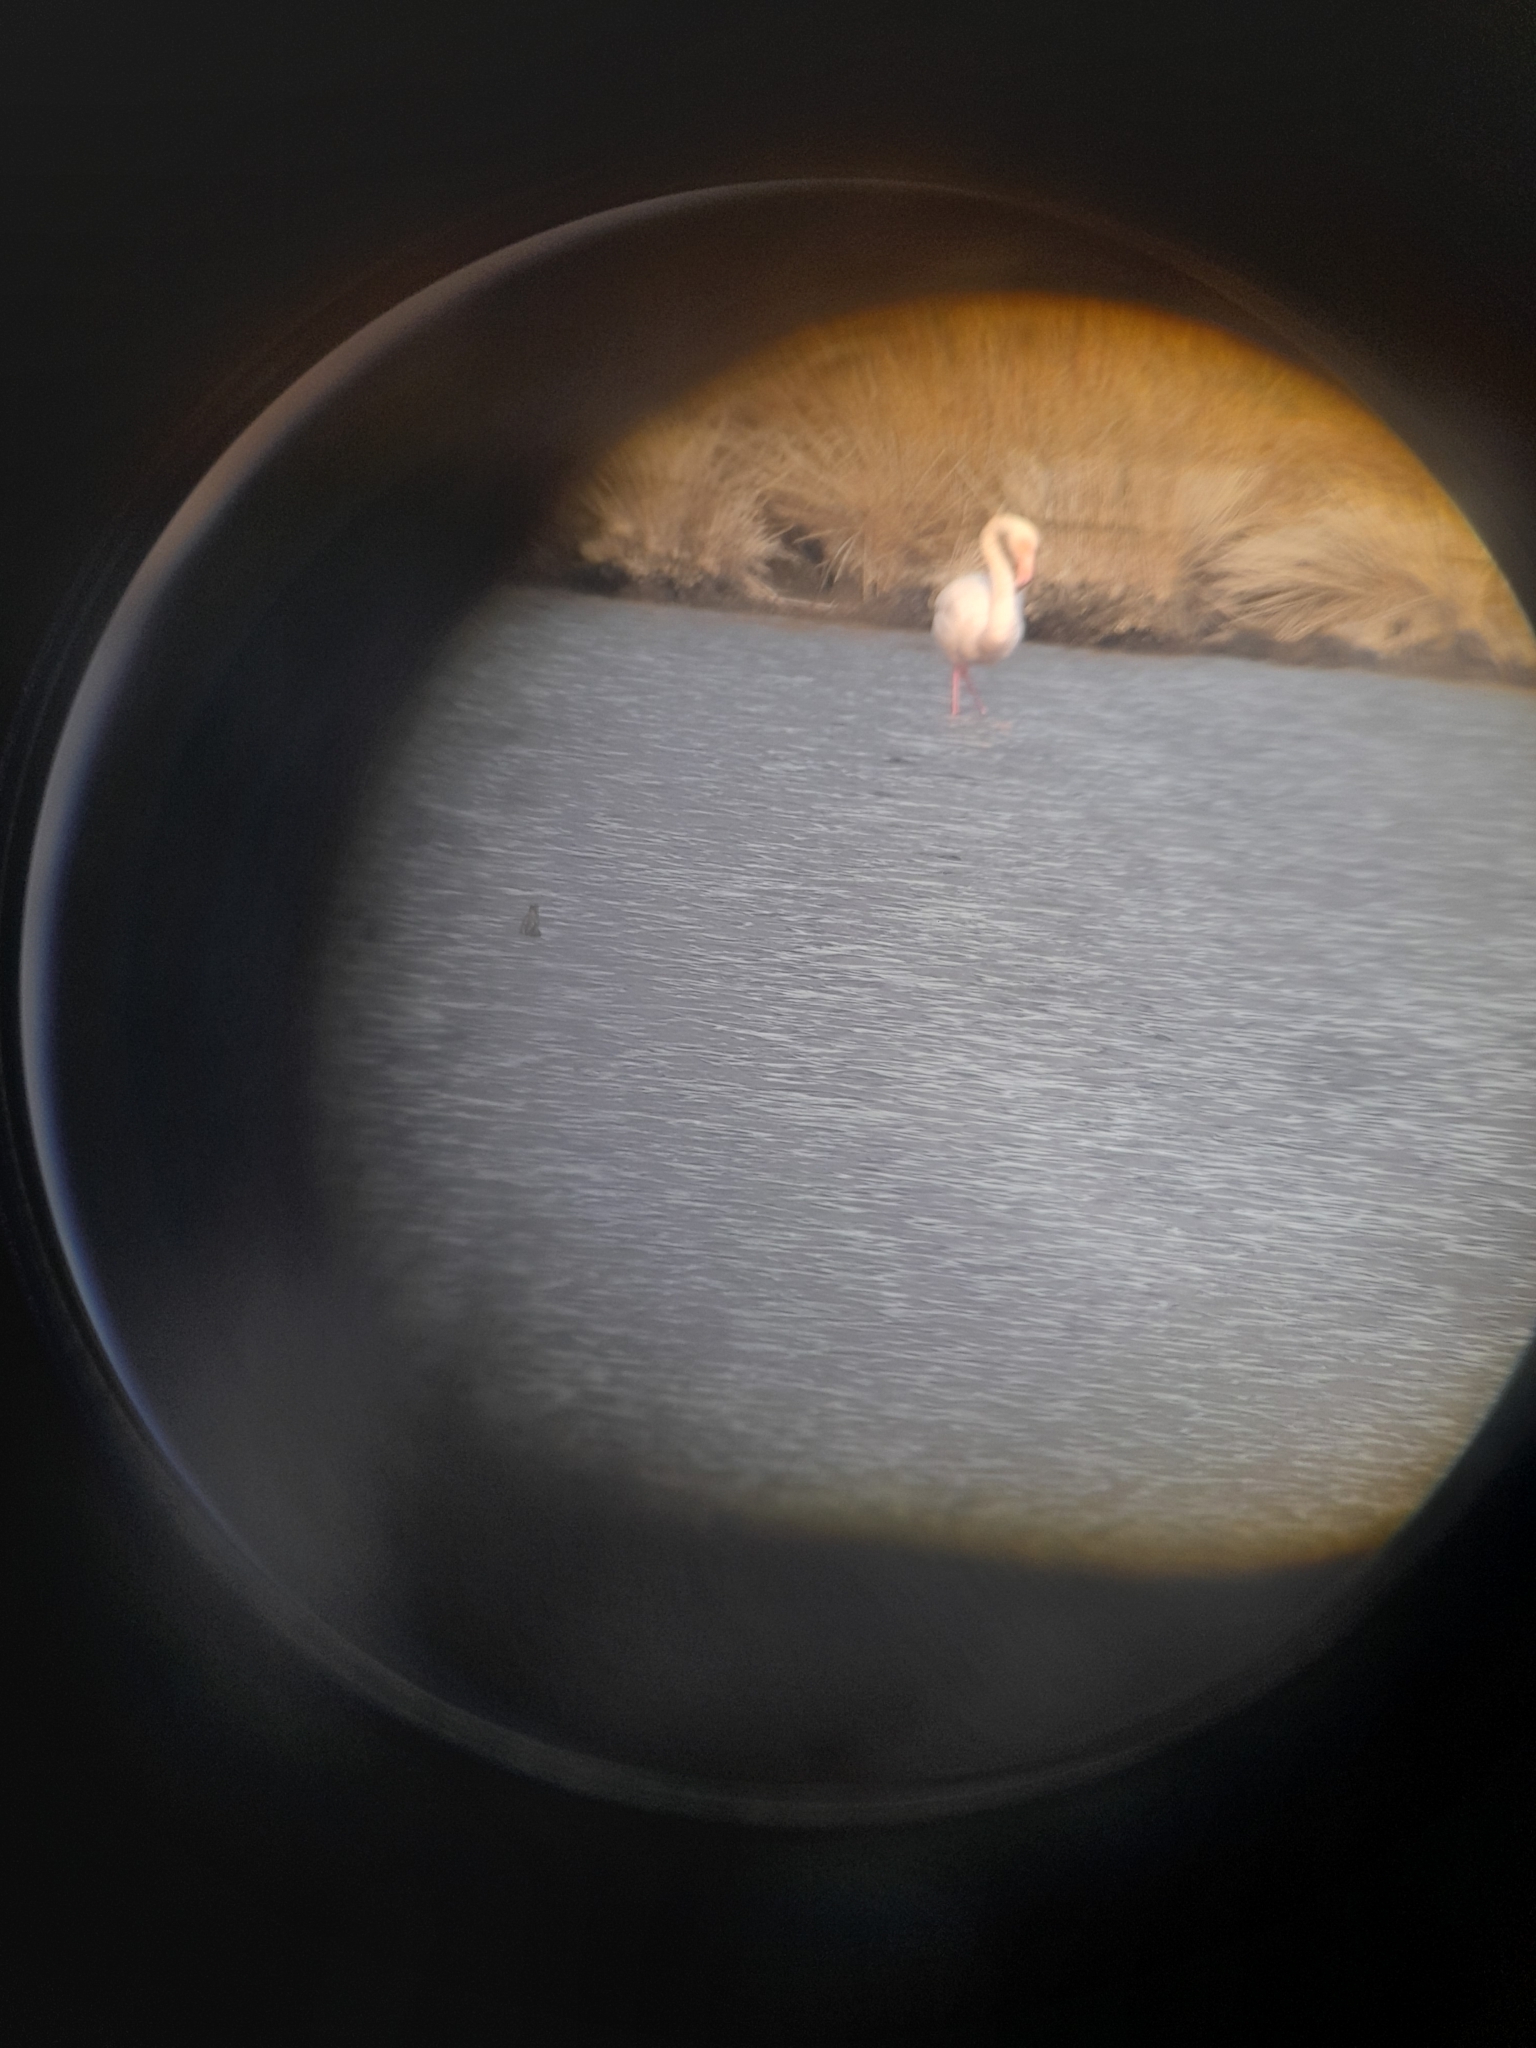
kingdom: Animalia
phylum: Chordata
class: Aves
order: Phoenicopteriformes
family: Phoenicopteridae
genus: Phoenicopterus
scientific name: Phoenicopterus roseus
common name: Greater flamingo
